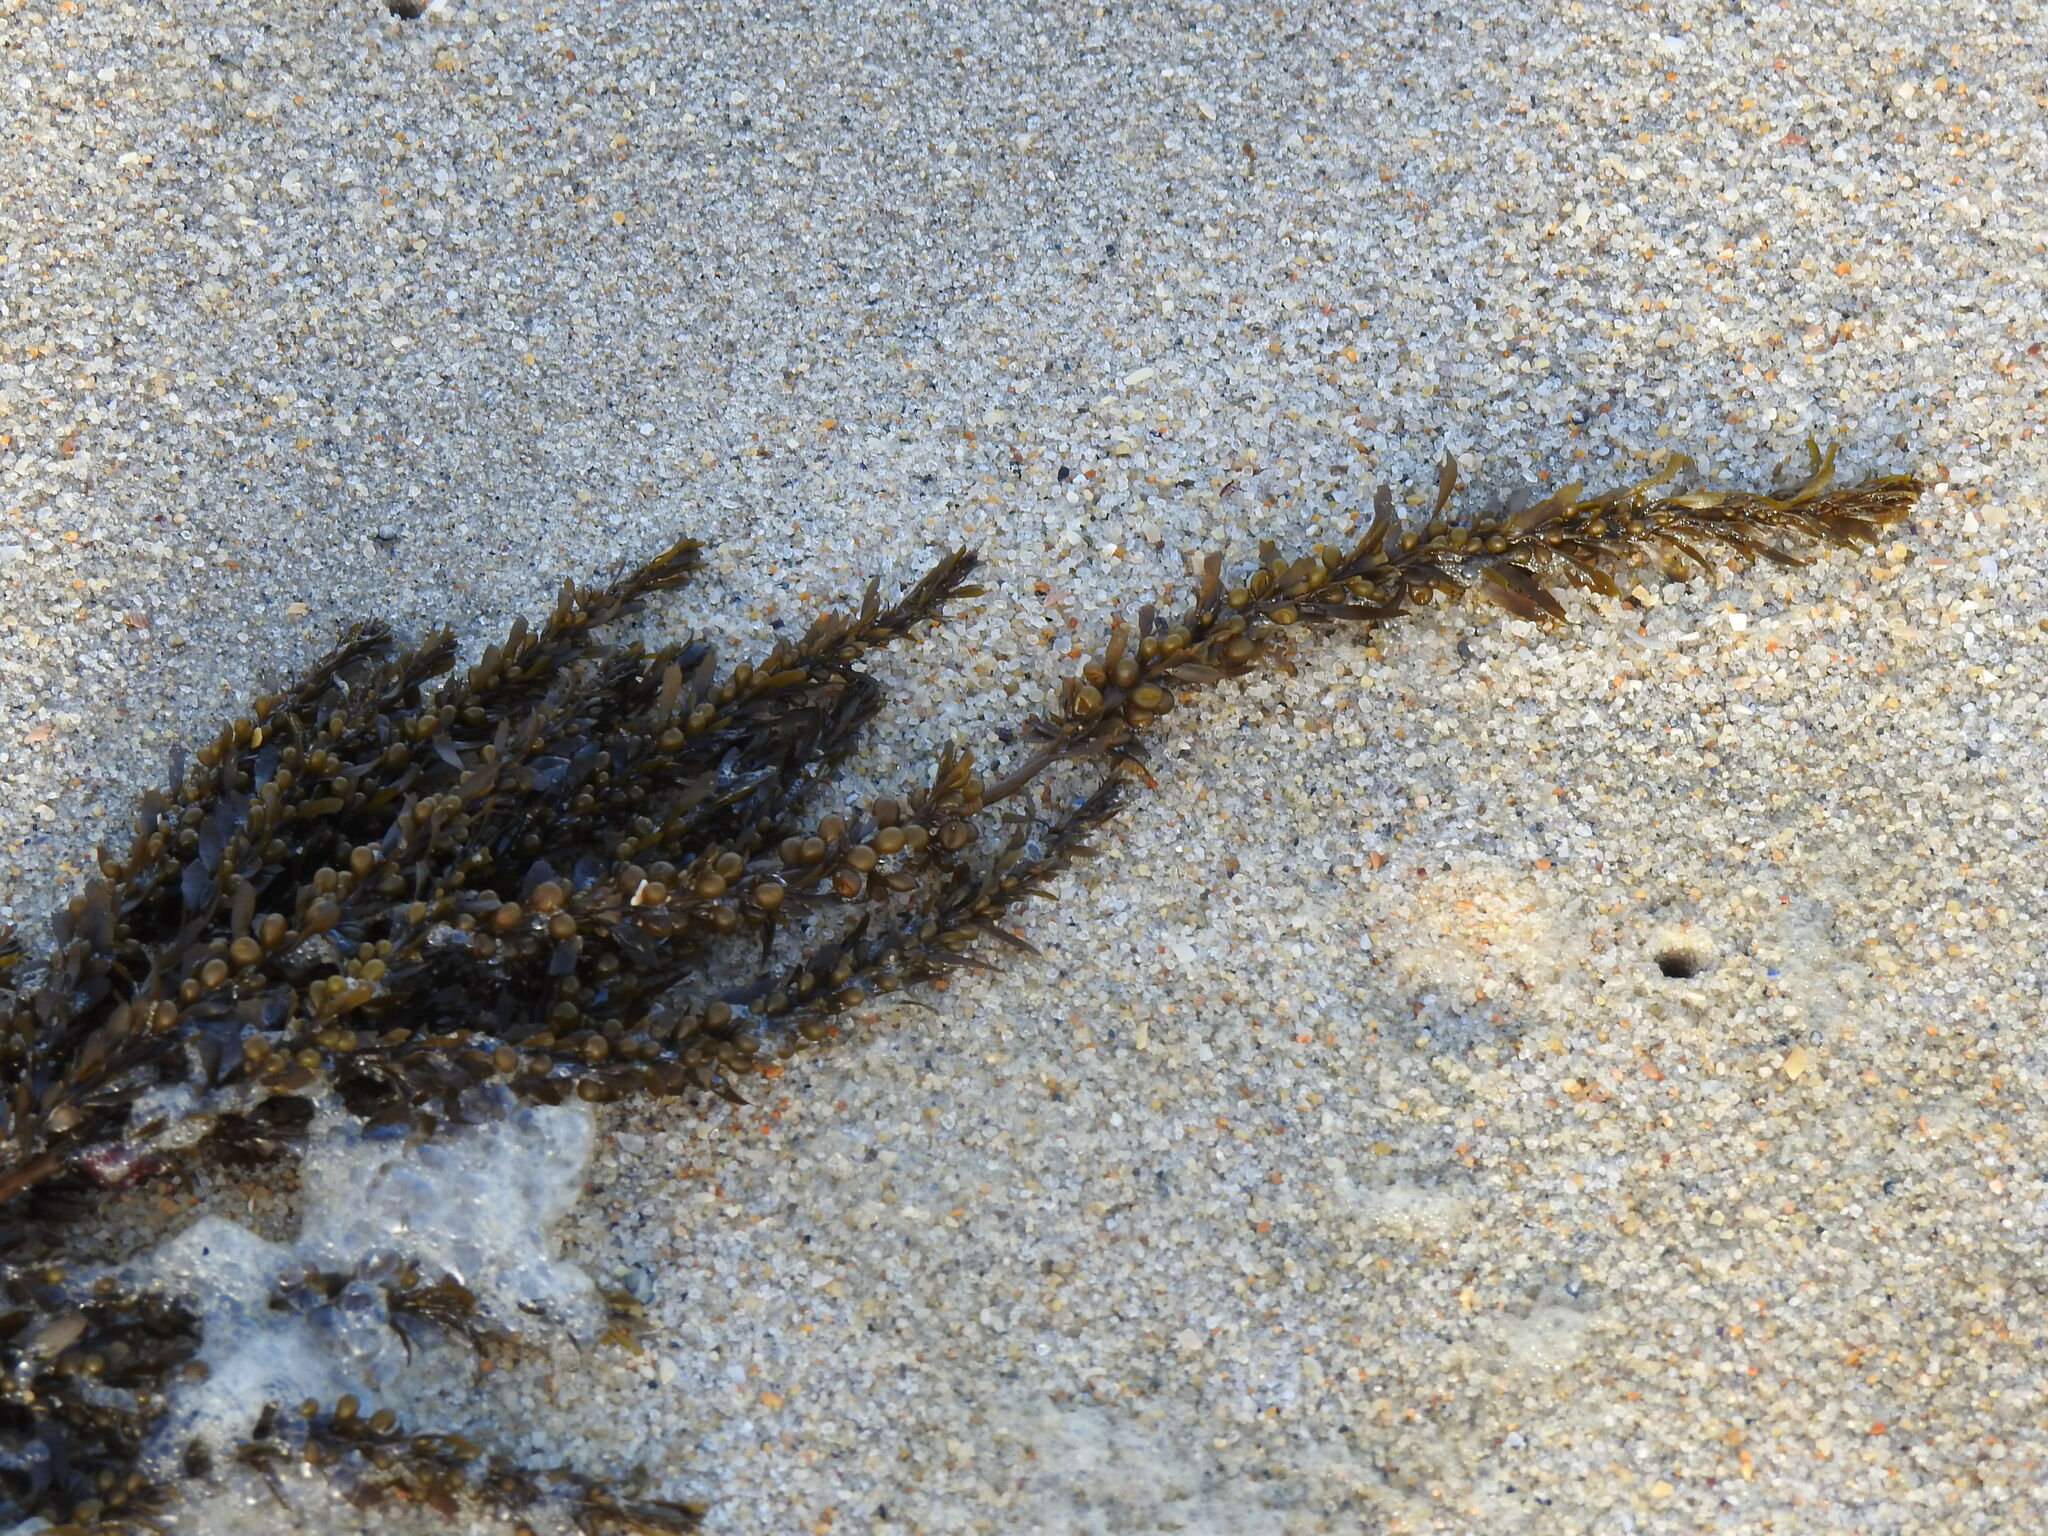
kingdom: Chromista
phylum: Ochrophyta
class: Phaeophyceae
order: Fucales
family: Sargassaceae
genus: Sargassum
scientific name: Sargassum muticum
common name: Japweed
